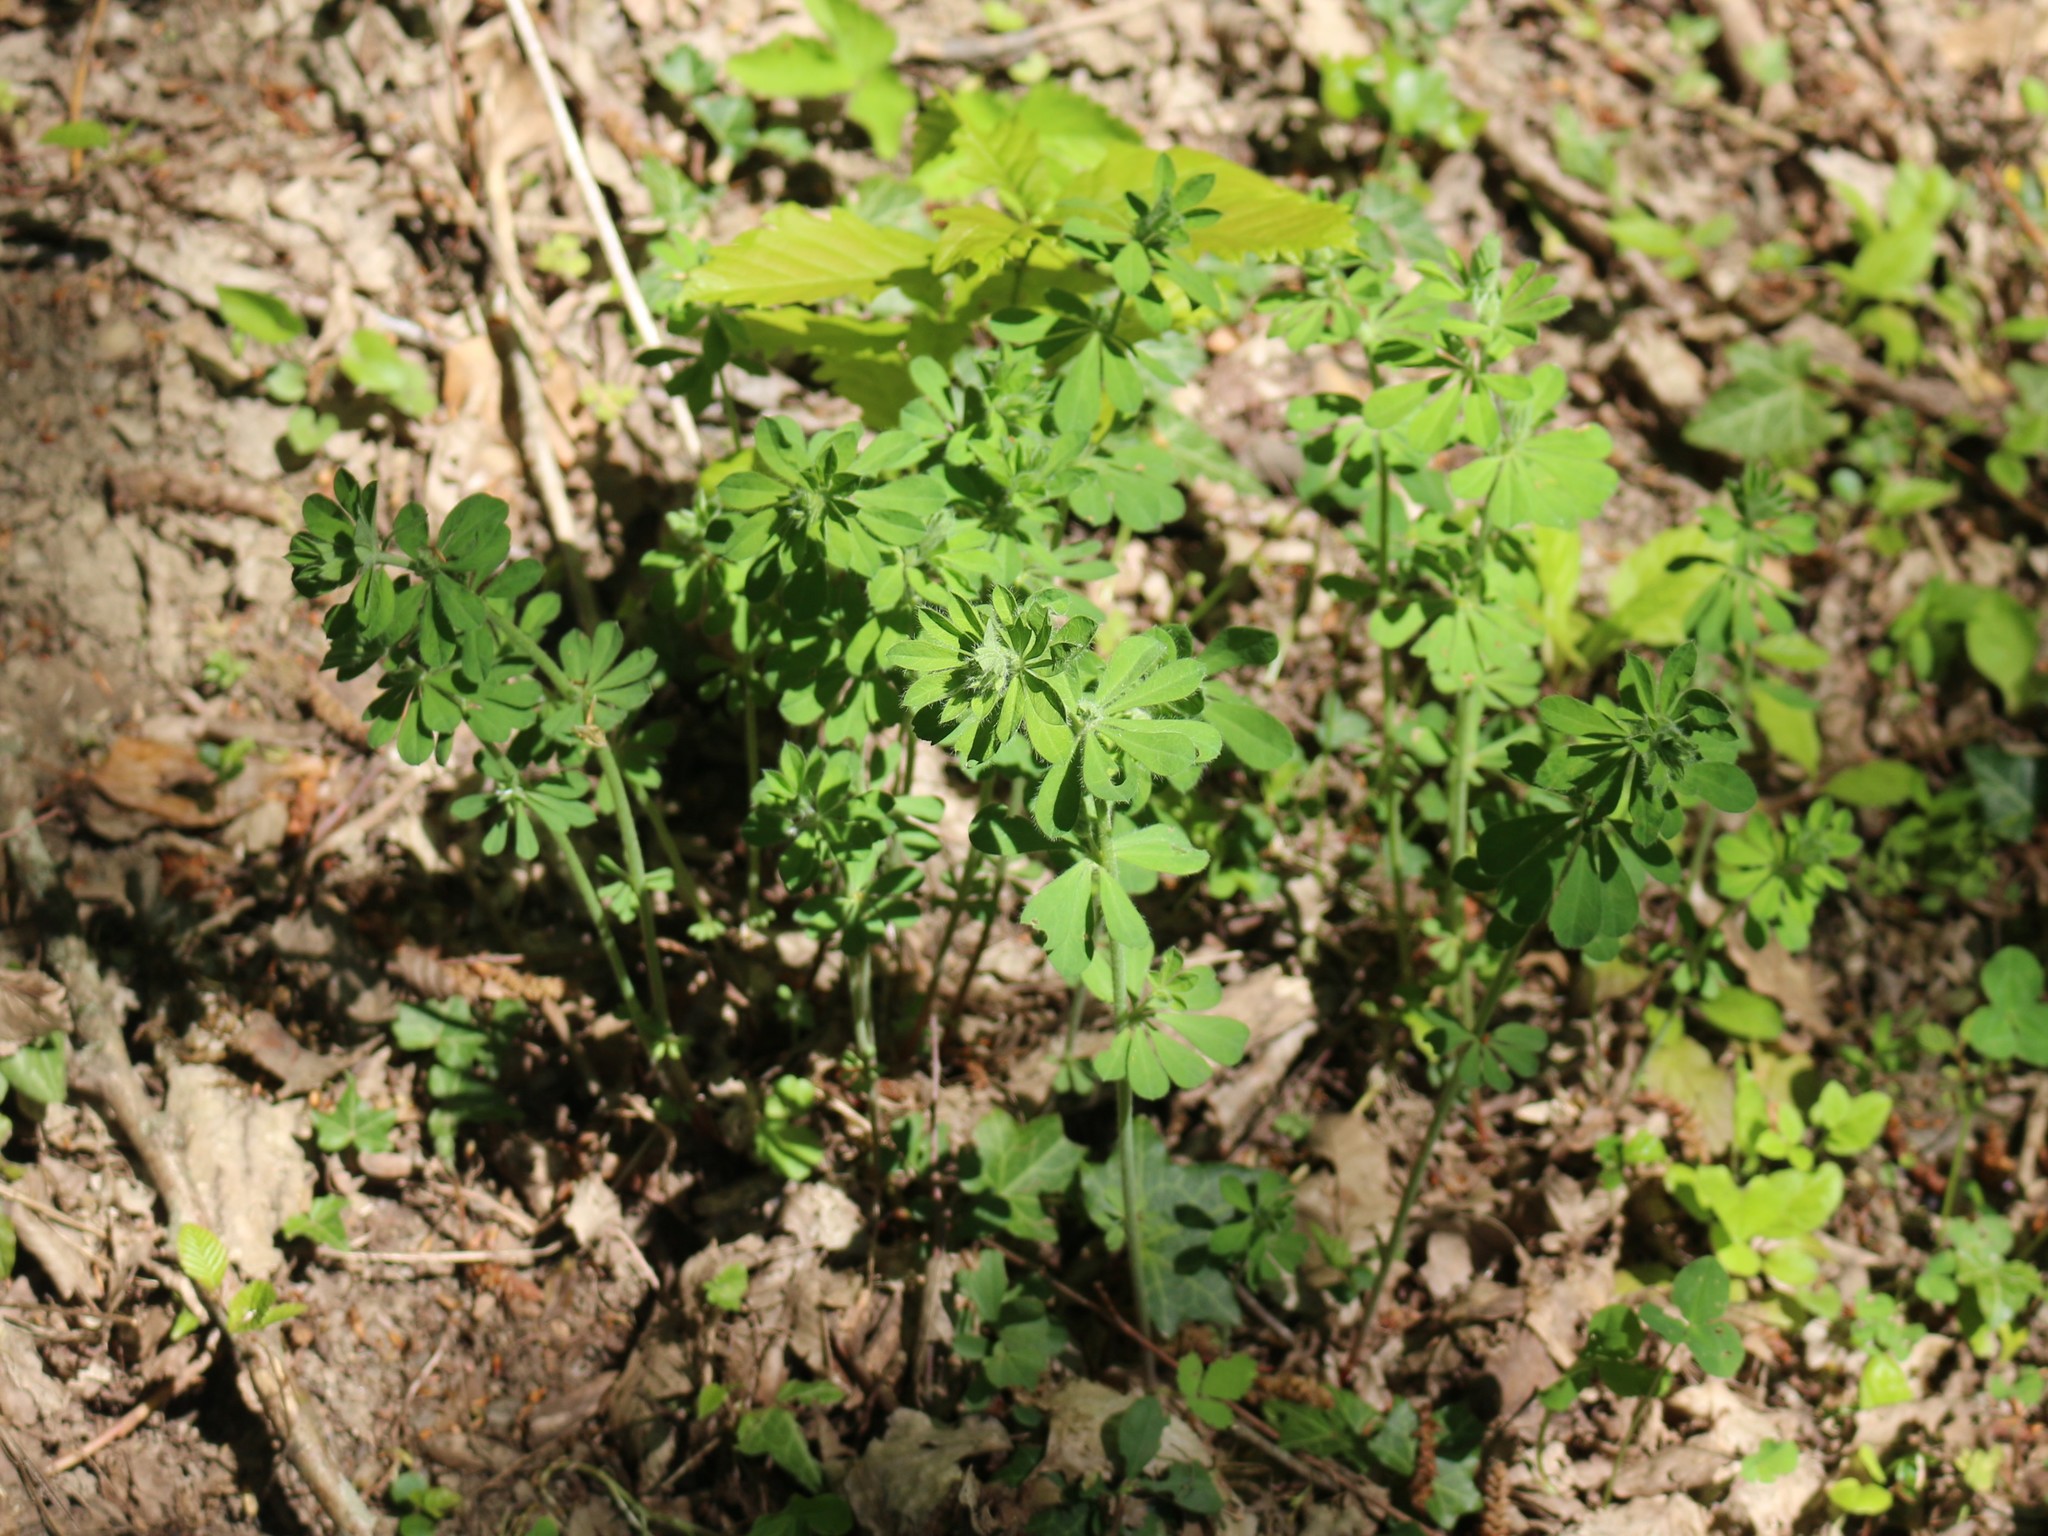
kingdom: Plantae
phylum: Tracheophyta
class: Magnoliopsida
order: Fabales
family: Fabaceae
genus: Lotus
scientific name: Lotus graecus
